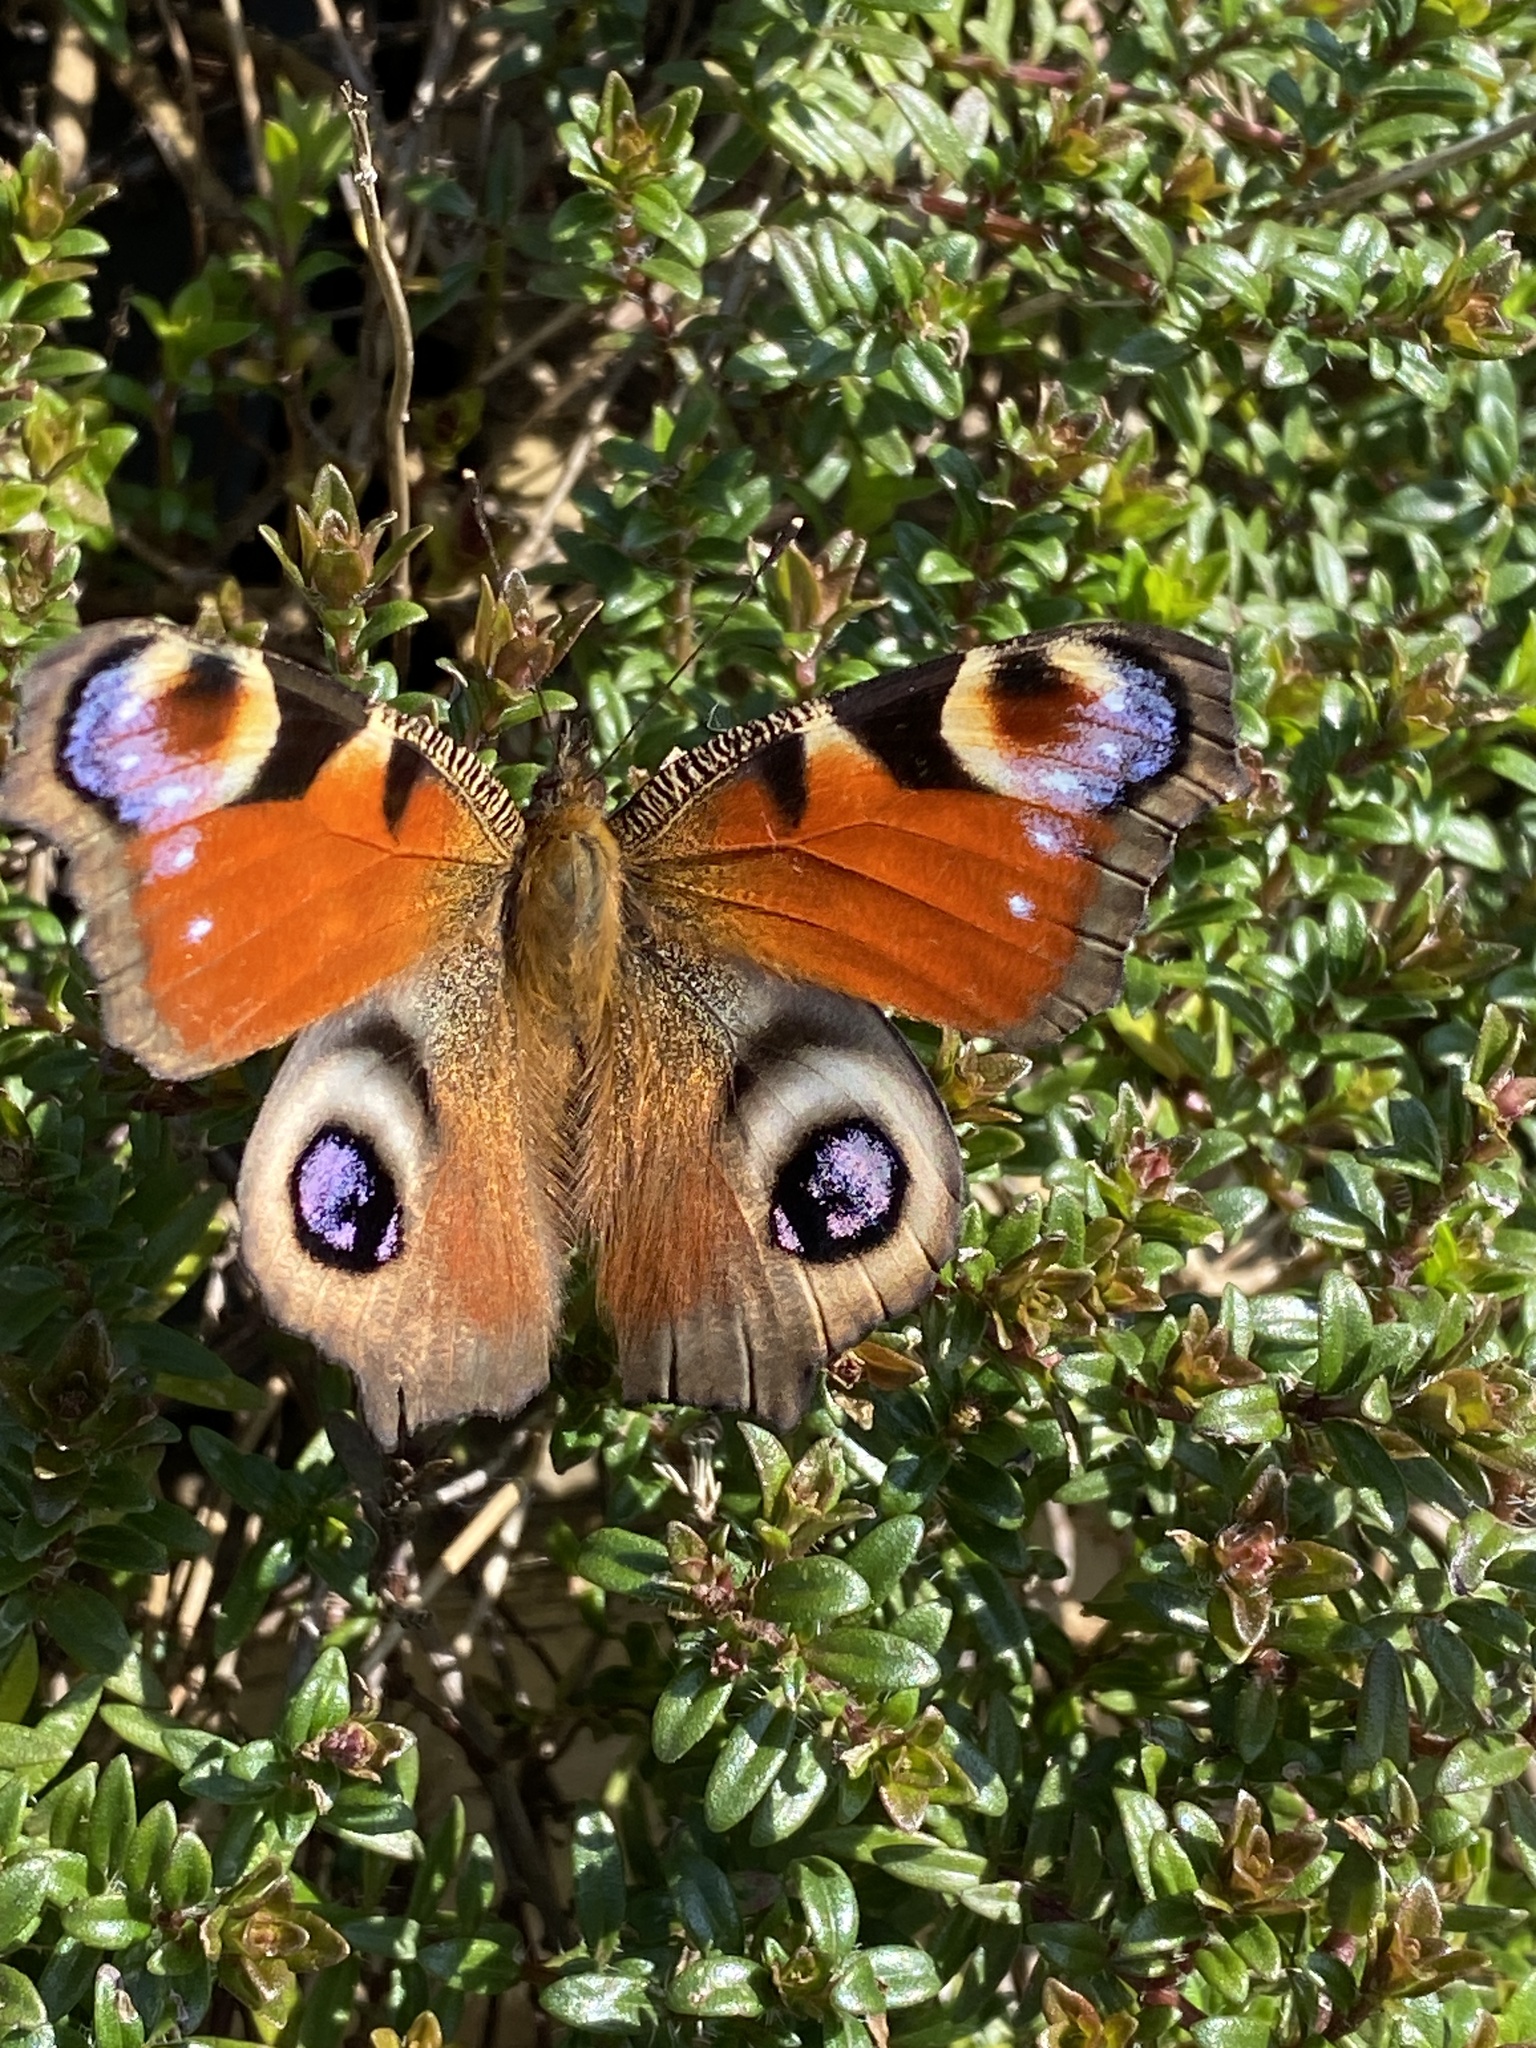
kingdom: Animalia
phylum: Arthropoda
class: Insecta
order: Lepidoptera
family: Nymphalidae
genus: Aglais
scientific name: Aglais io
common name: Peacock
